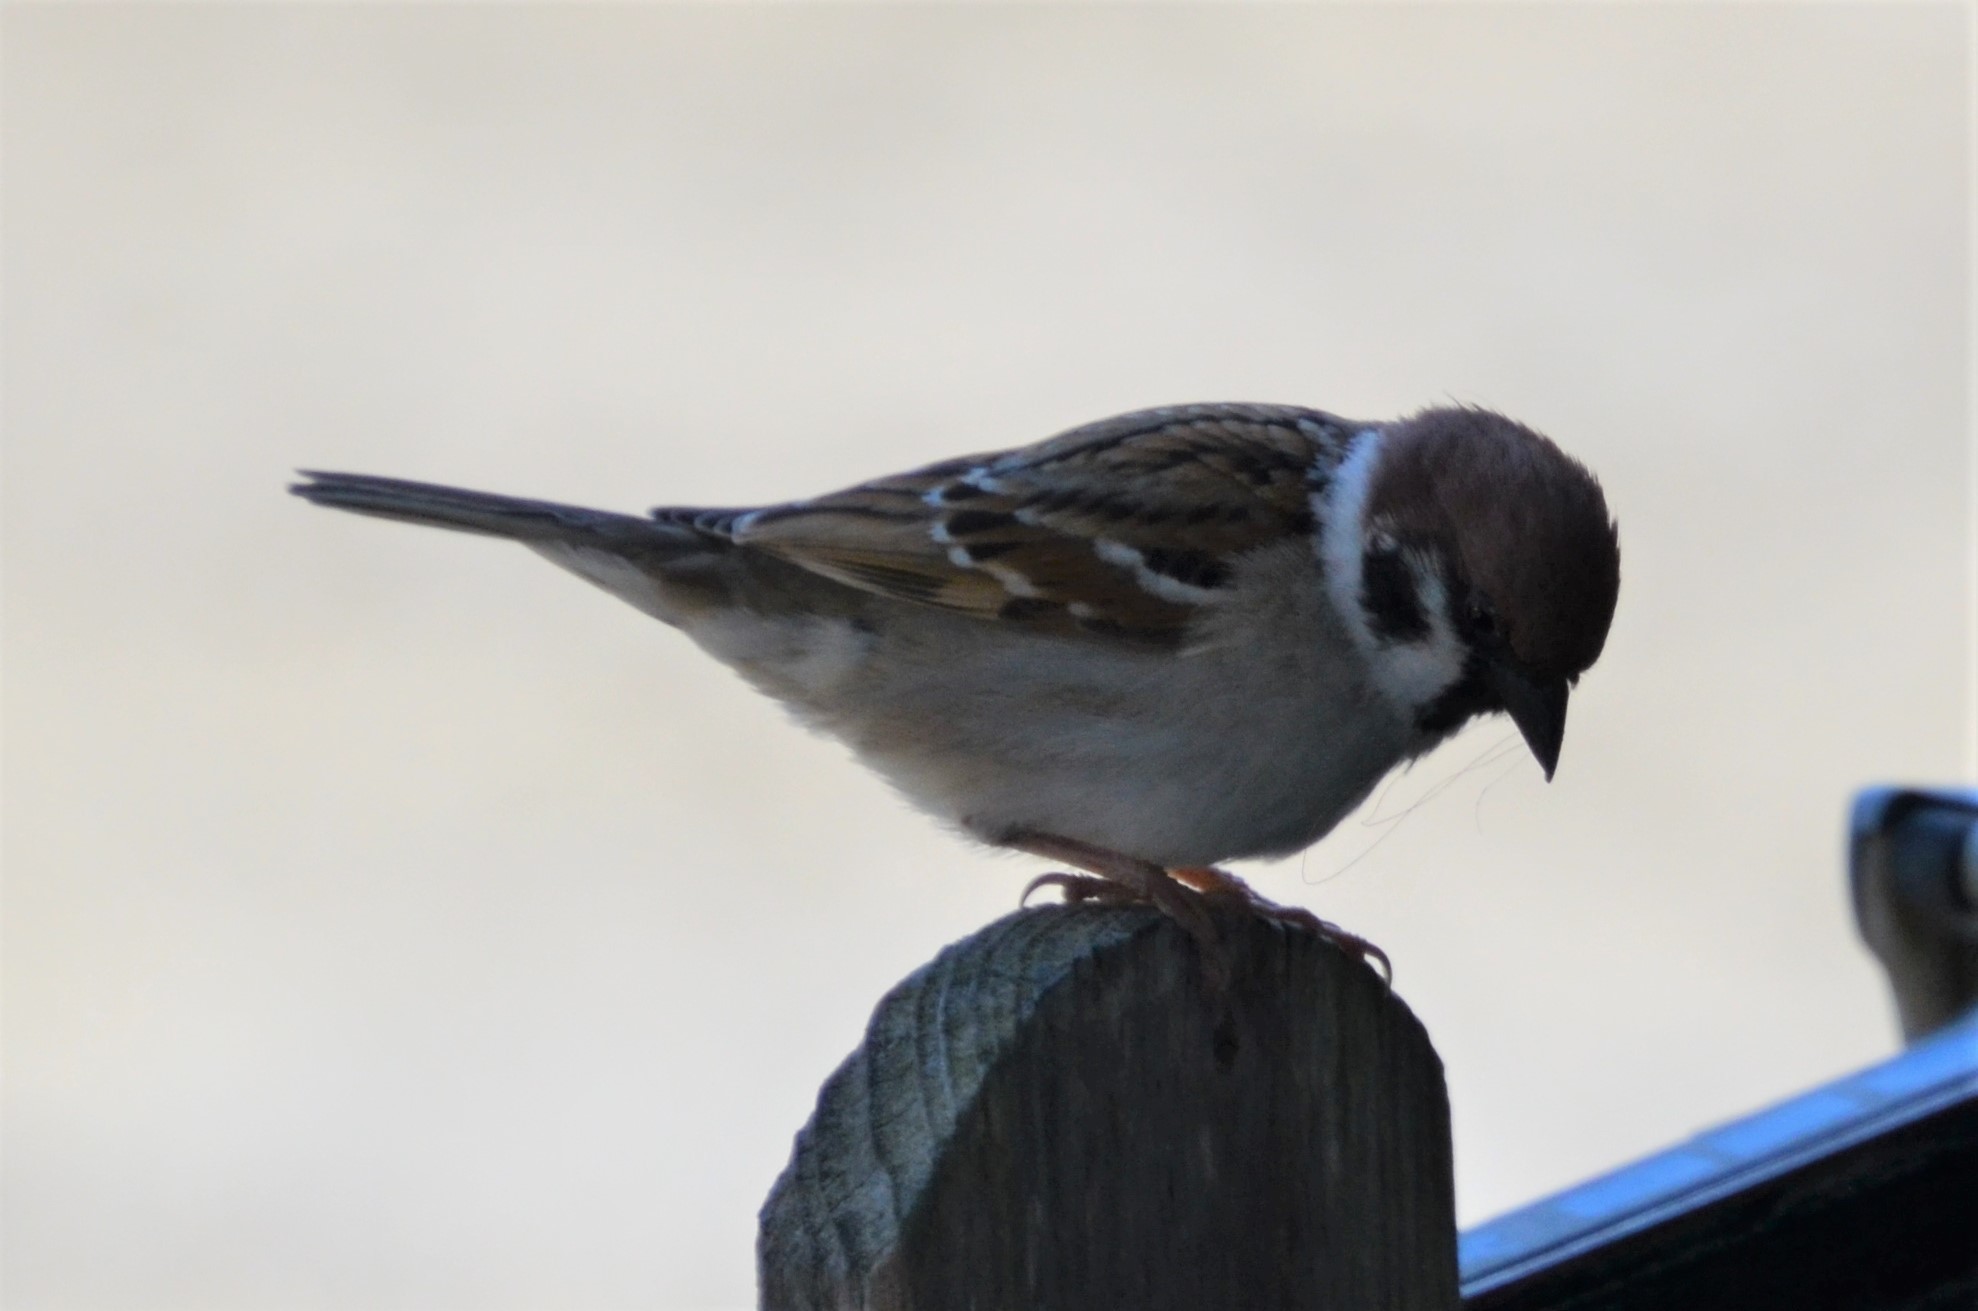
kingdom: Animalia
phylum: Chordata
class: Aves
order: Passeriformes
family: Passeridae
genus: Passer
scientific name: Passer montanus
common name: Eurasian tree sparrow
